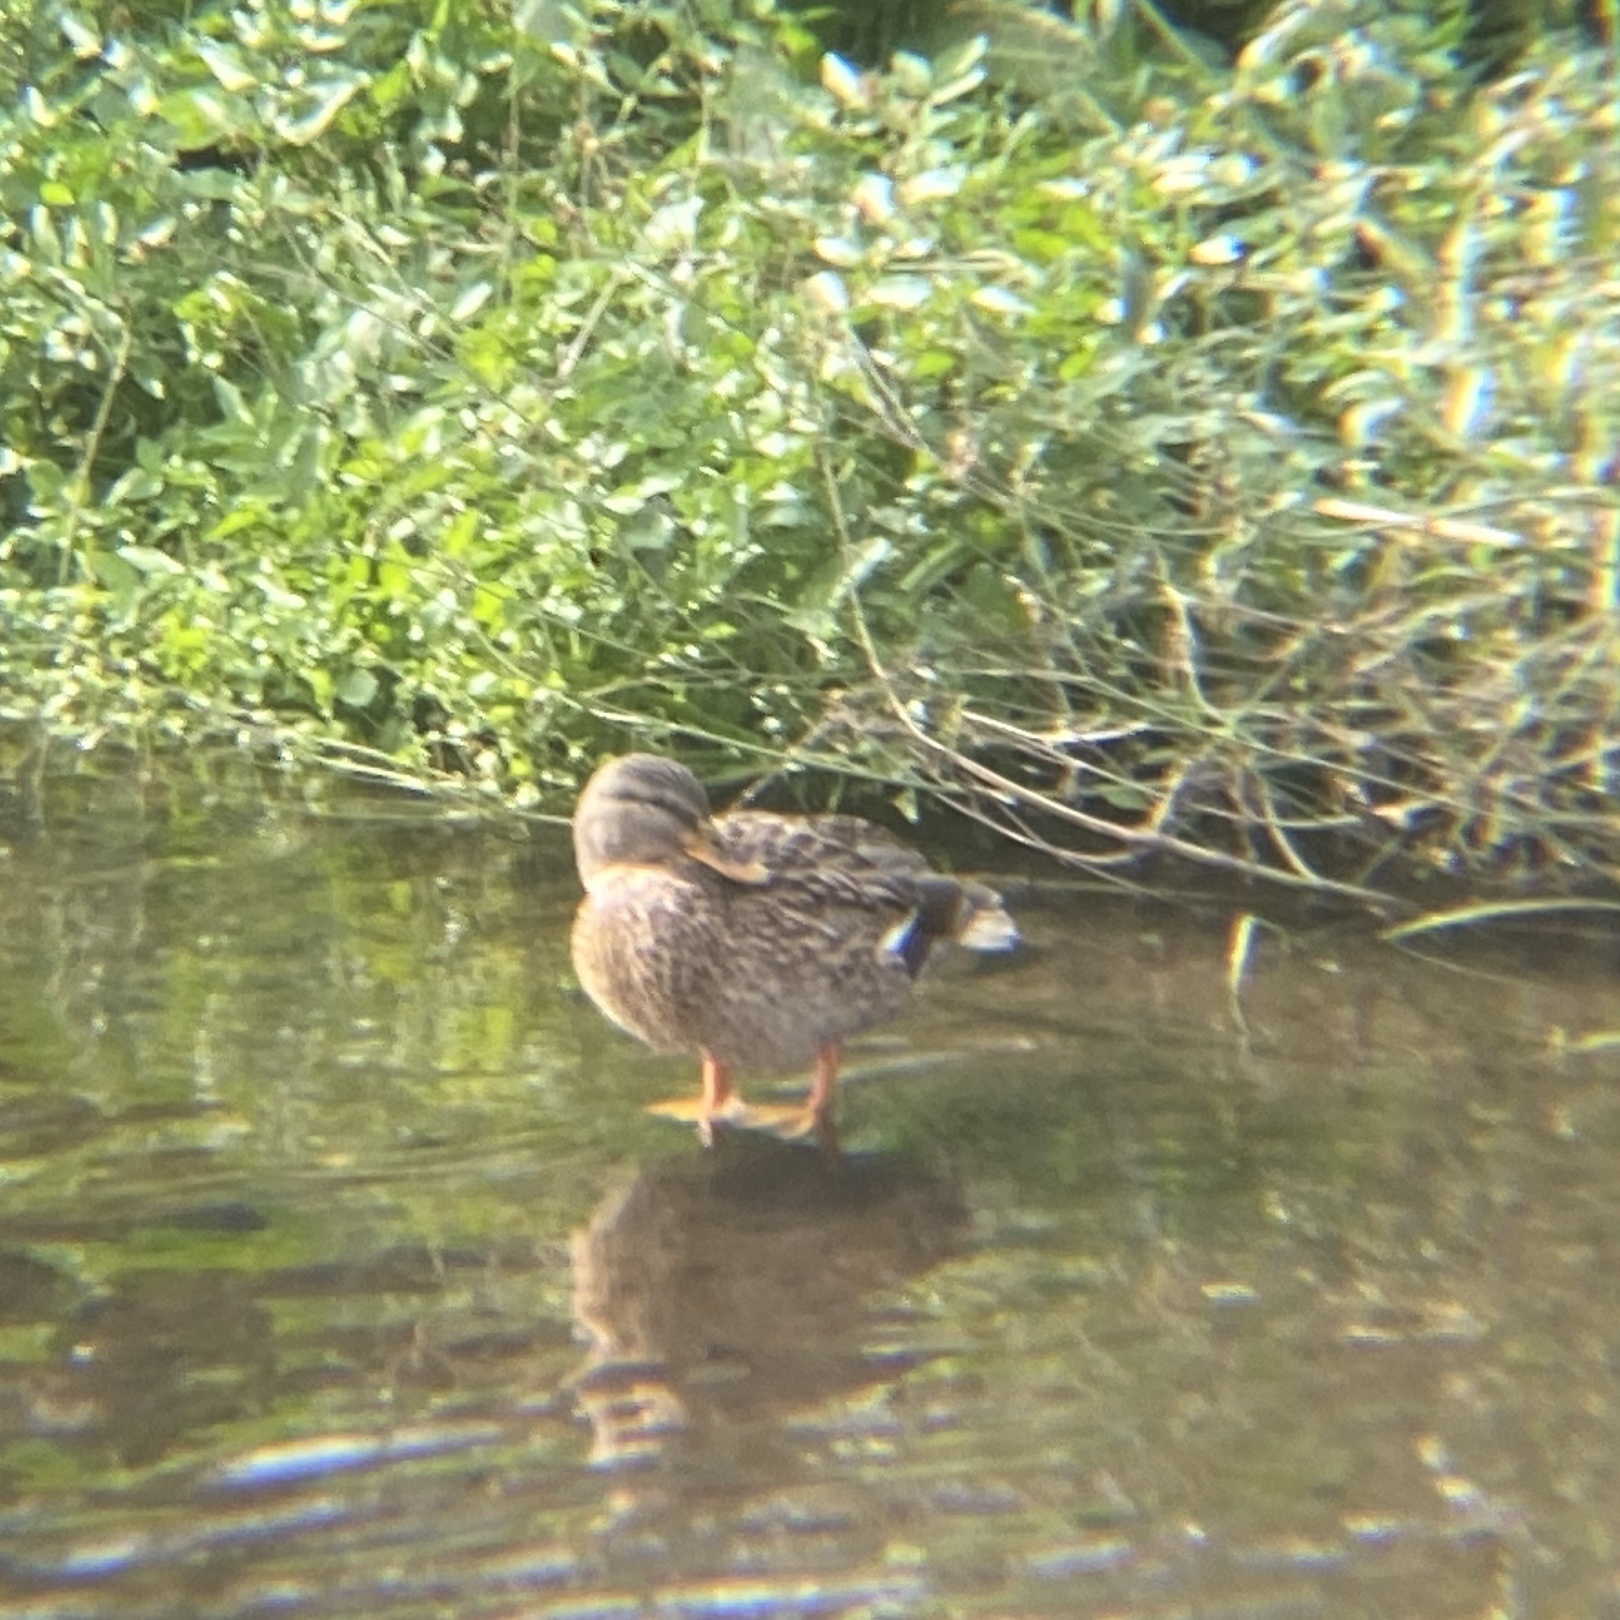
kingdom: Animalia
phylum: Chordata
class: Aves
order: Anseriformes
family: Anatidae
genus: Anas
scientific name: Anas platyrhynchos
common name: Mallard
